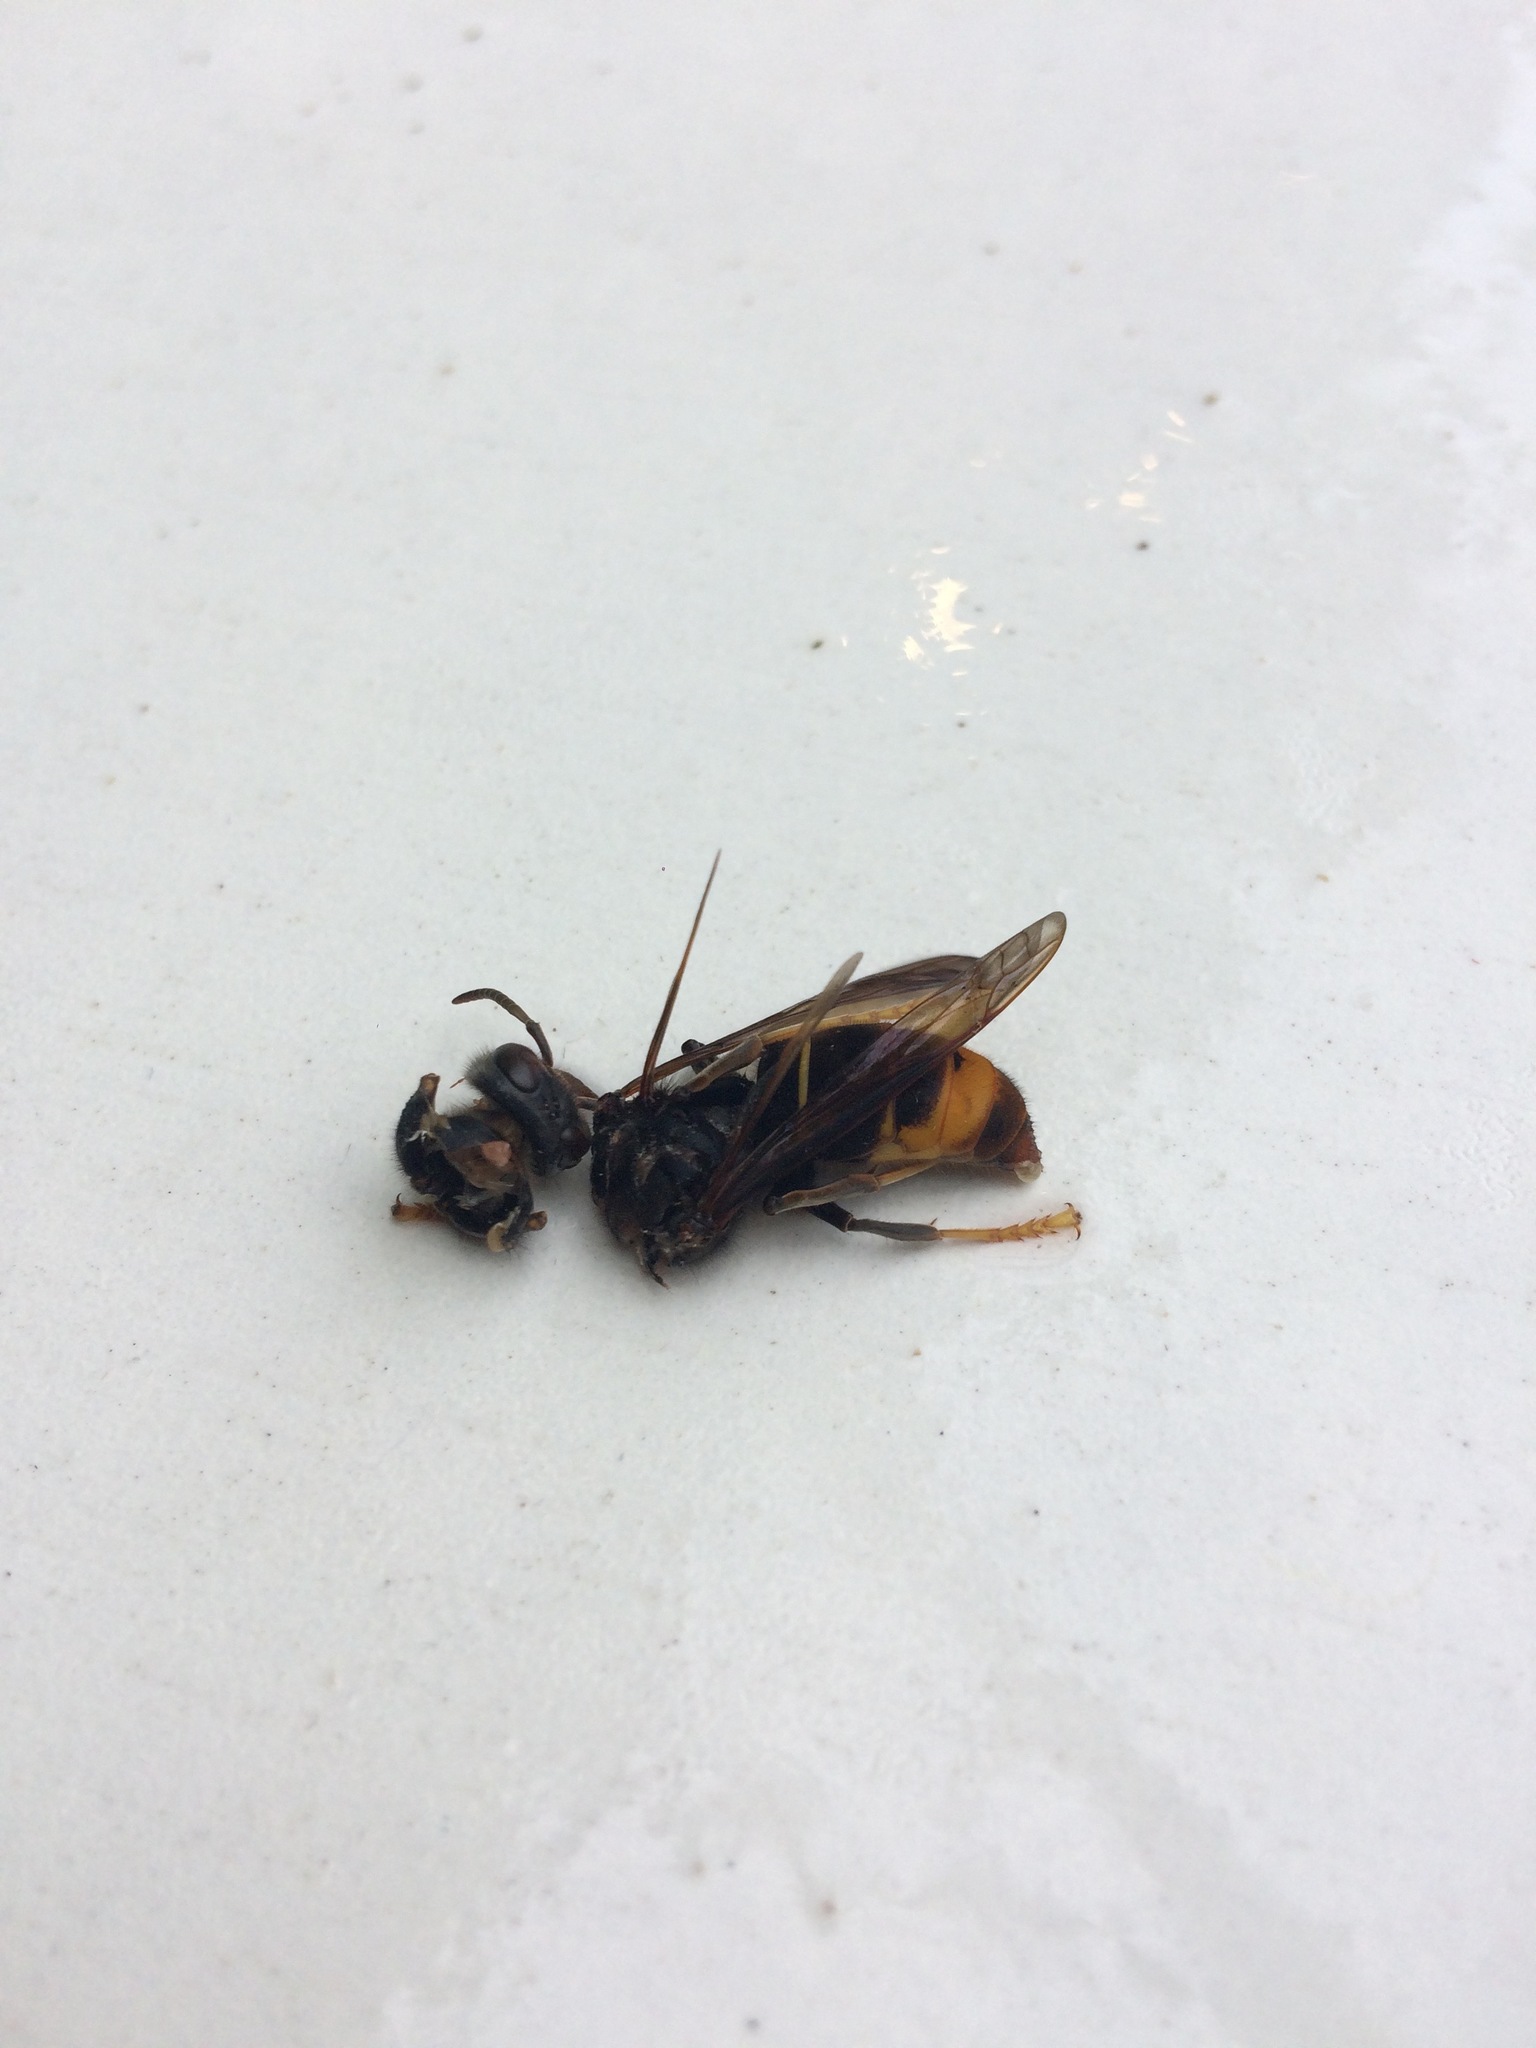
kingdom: Animalia
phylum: Arthropoda
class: Insecta
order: Hymenoptera
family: Vespidae
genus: Vespa
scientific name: Vespa velutina
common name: Asian hornet
